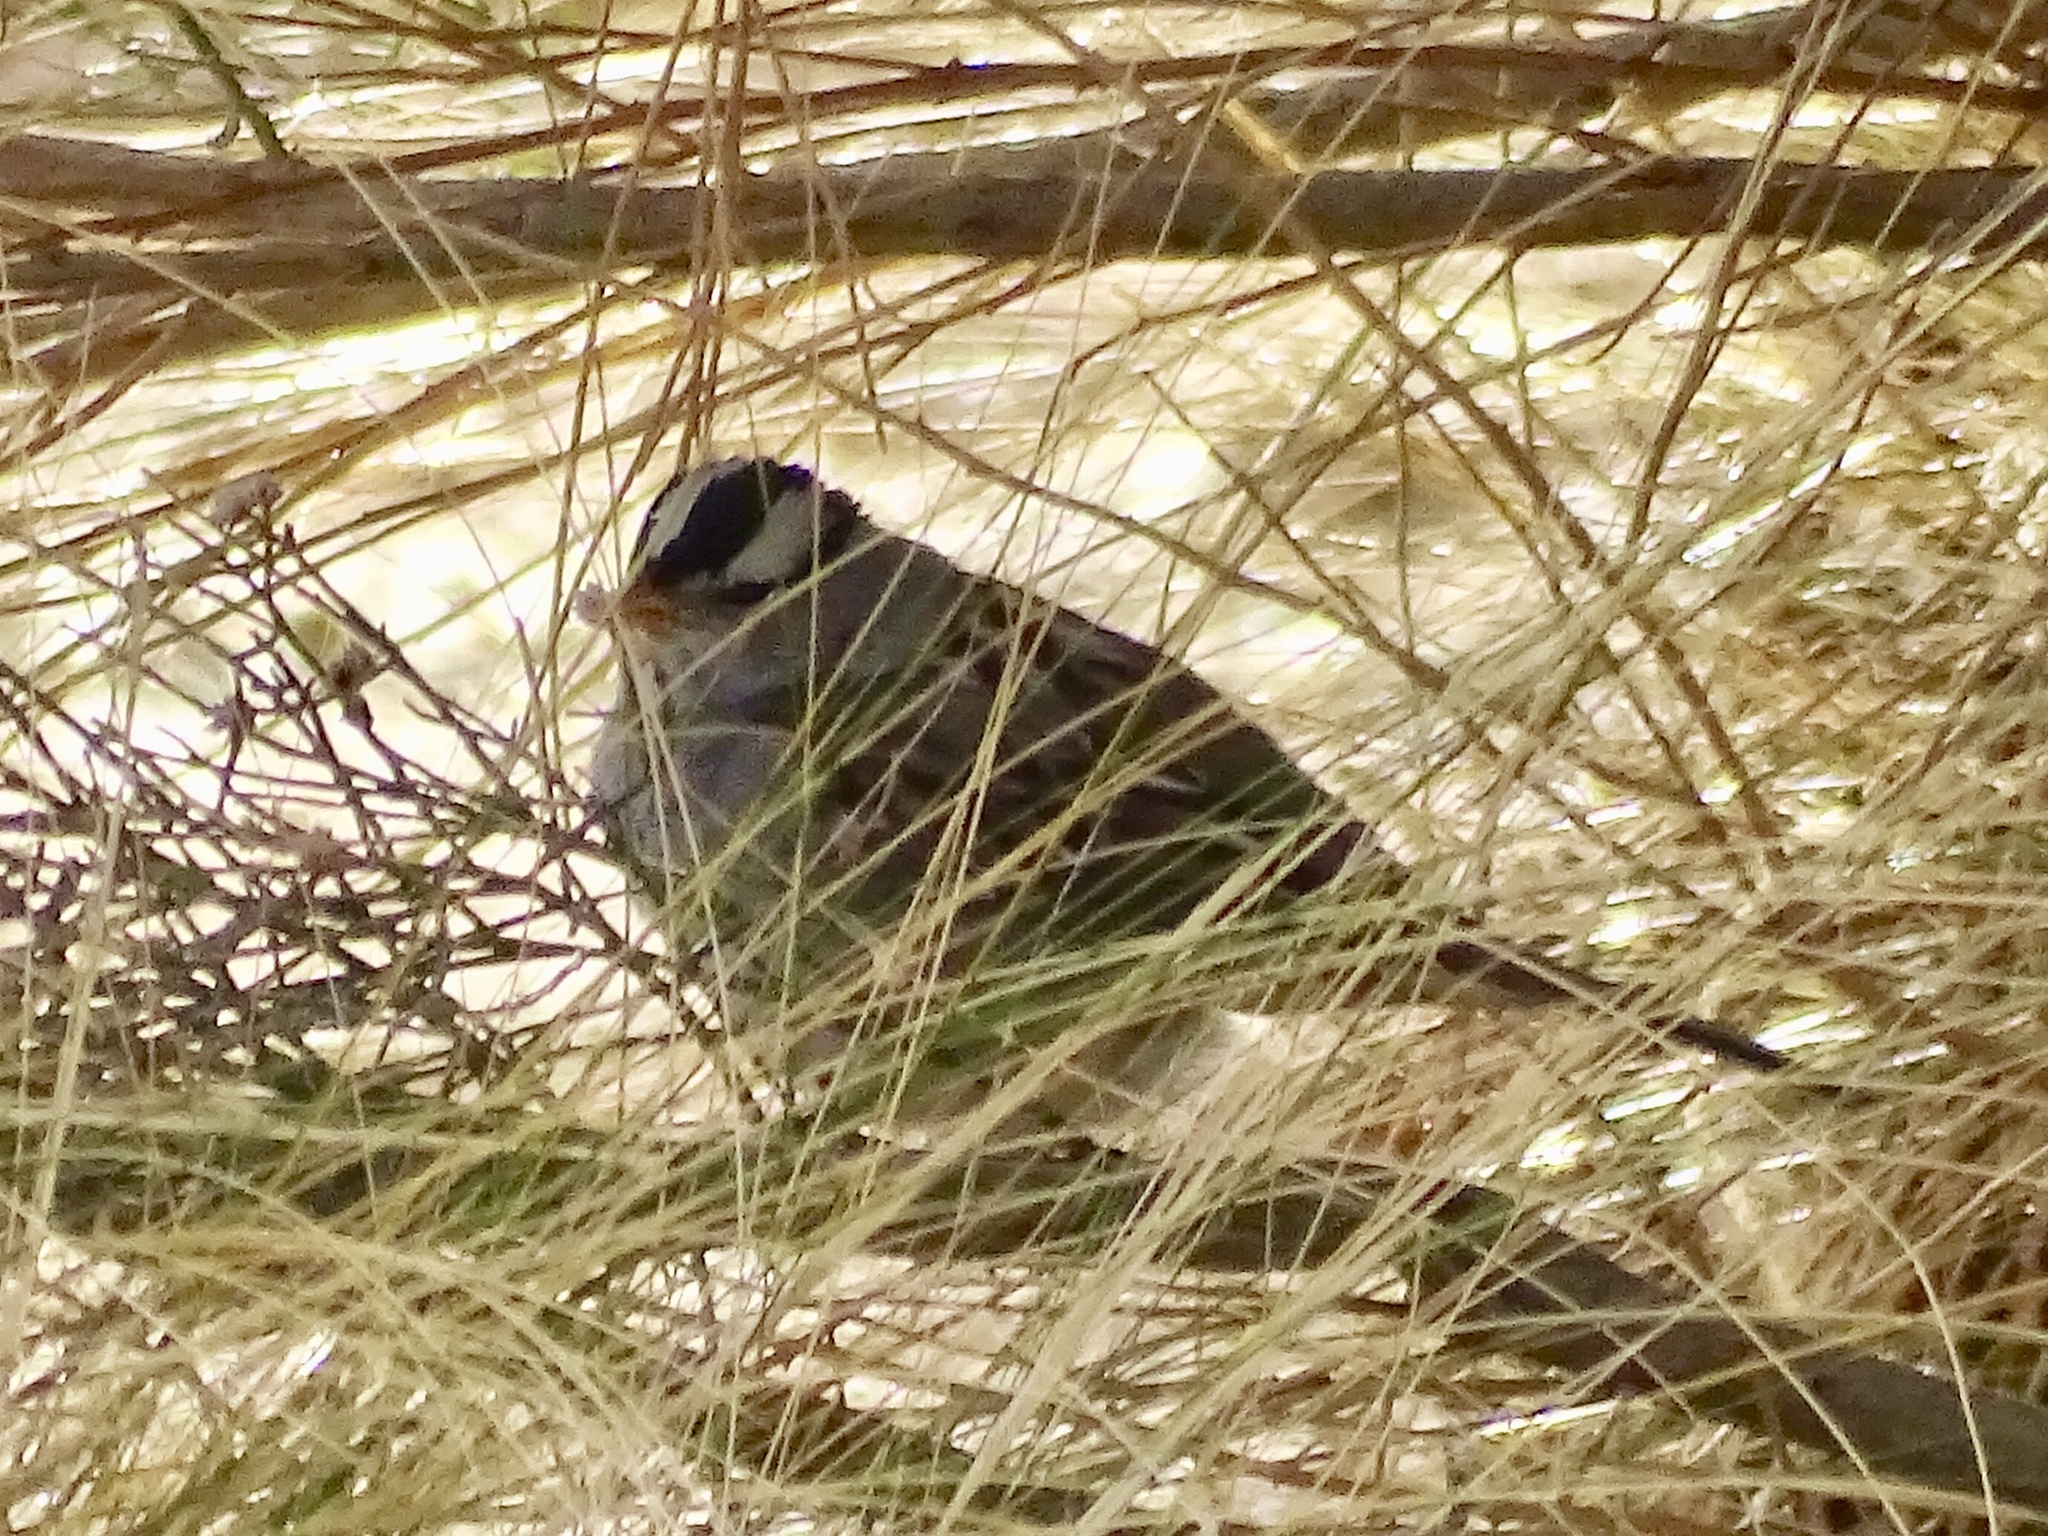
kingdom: Animalia
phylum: Chordata
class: Aves
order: Passeriformes
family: Passerellidae
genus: Zonotrichia
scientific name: Zonotrichia leucophrys
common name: White-crowned sparrow
